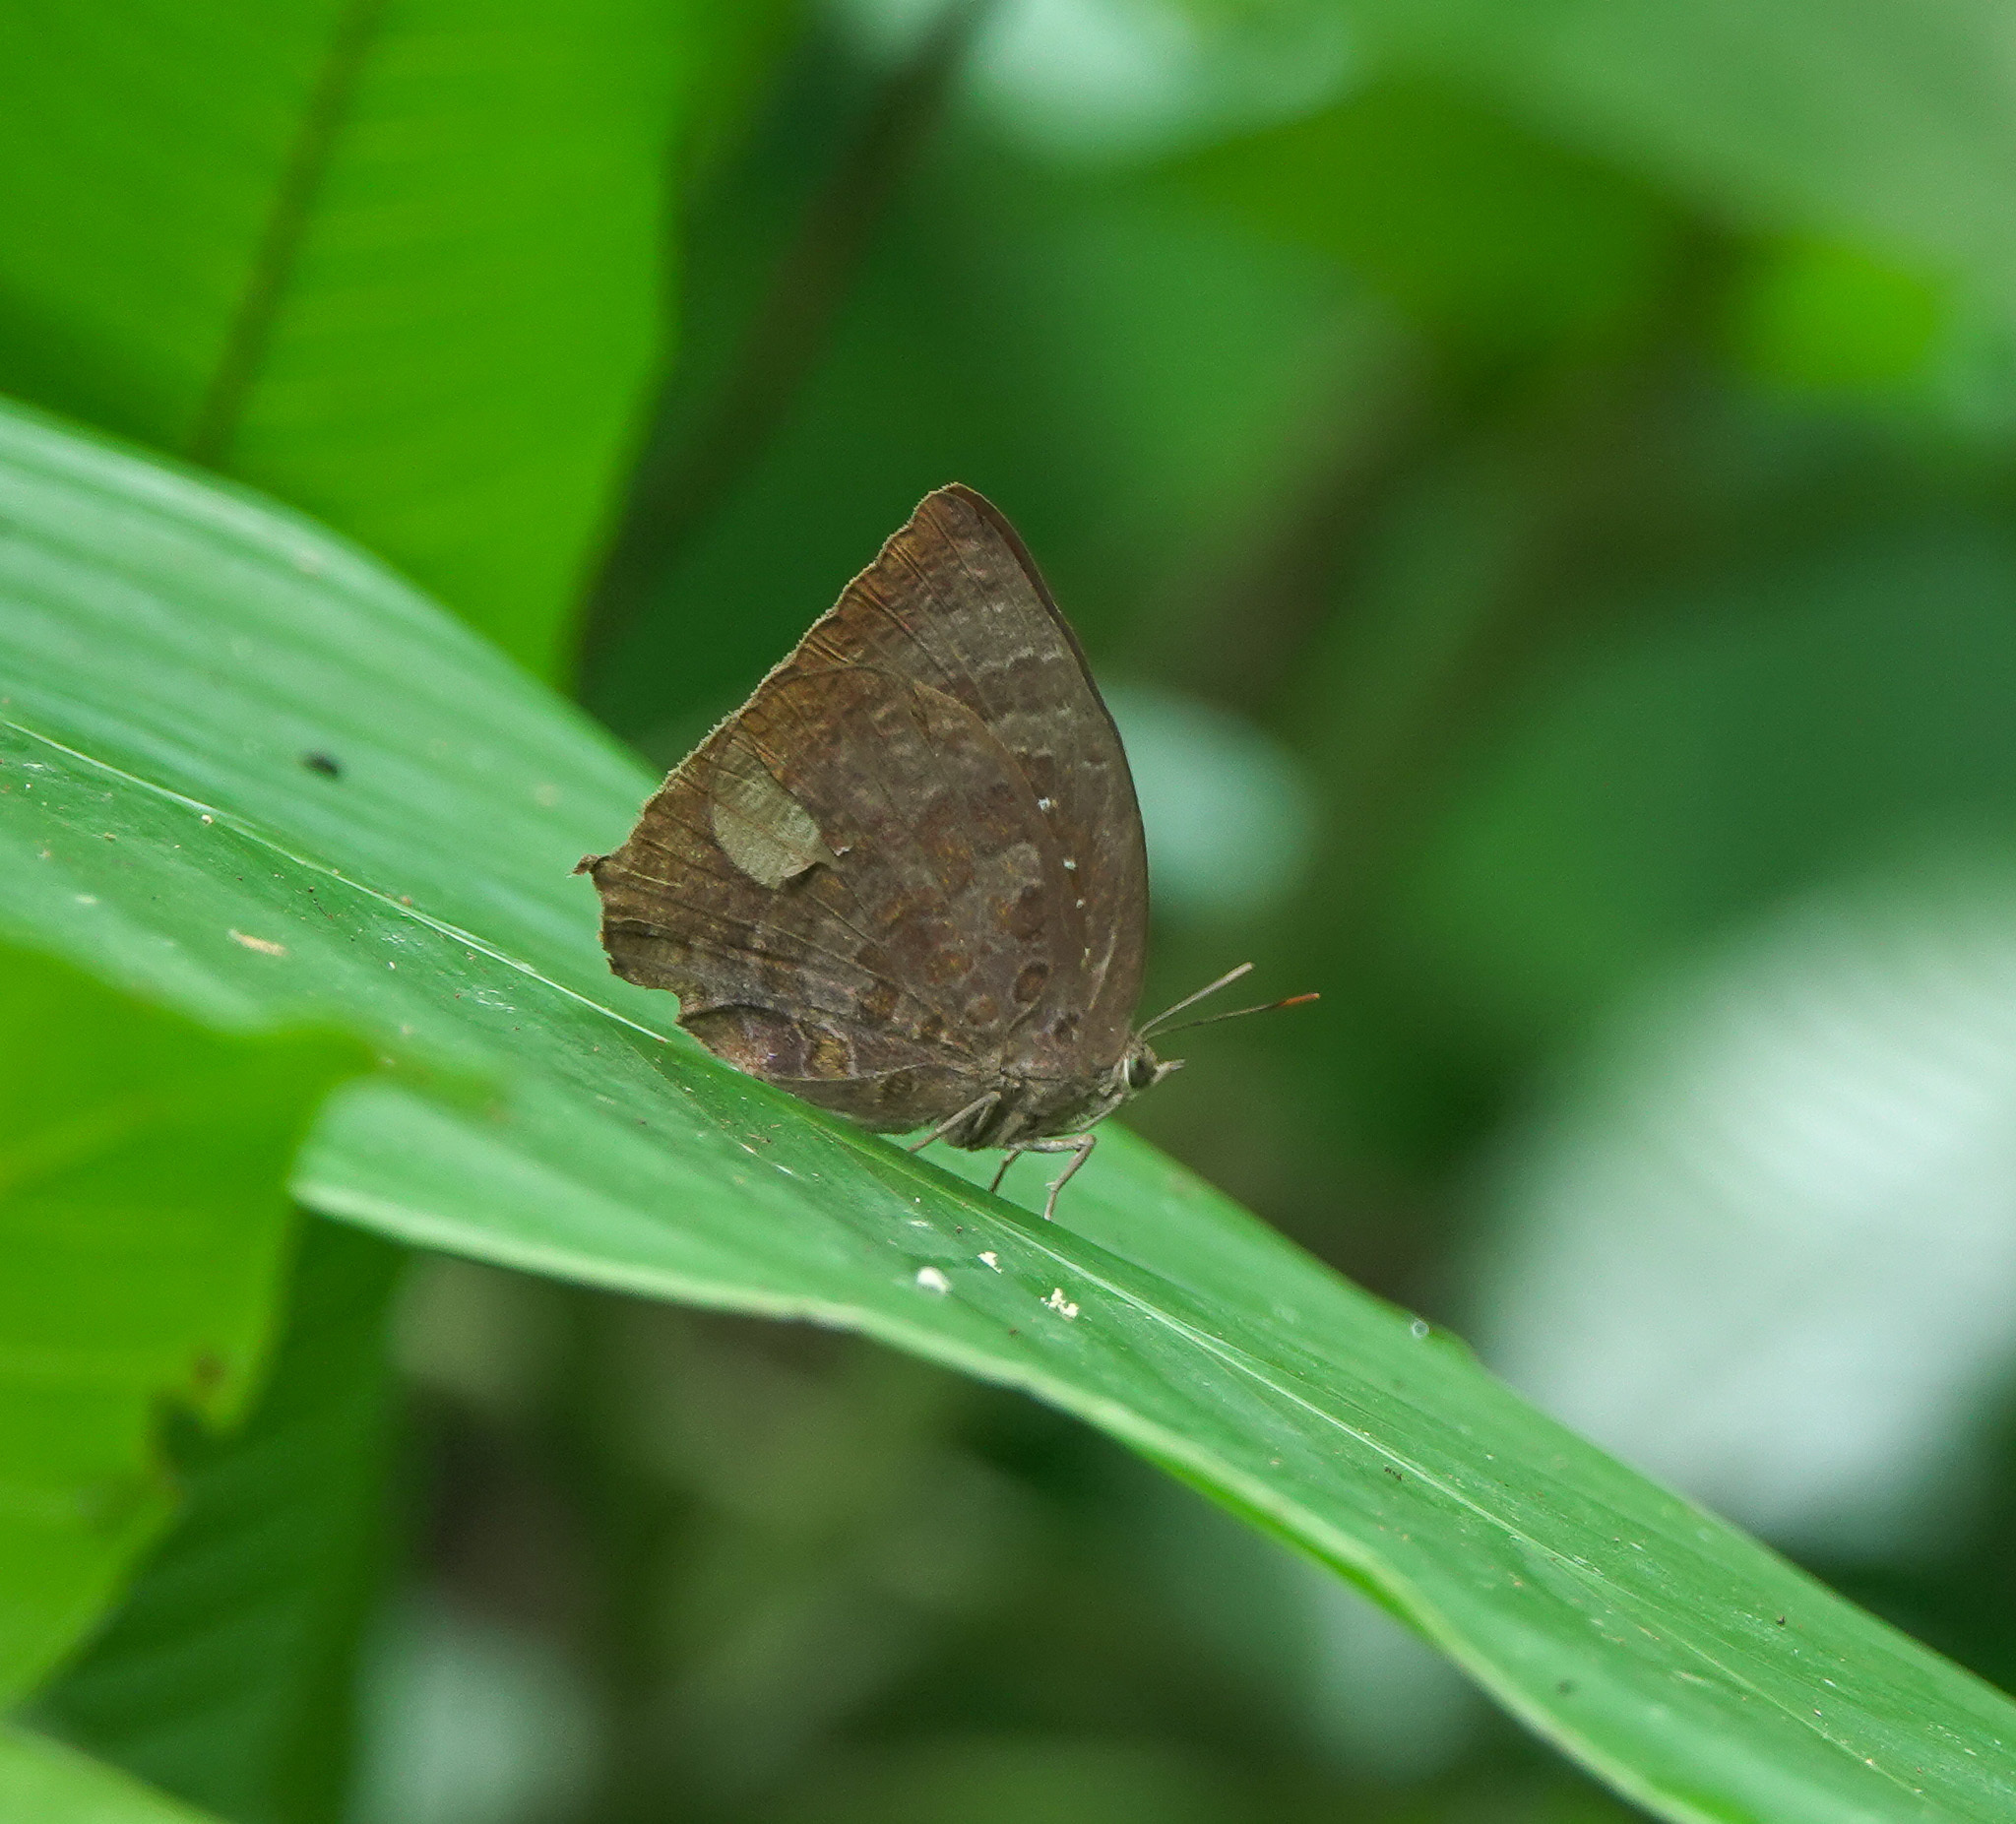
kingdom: Animalia
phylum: Arthropoda
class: Insecta
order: Lepidoptera
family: Lycaenidae
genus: Arhopala
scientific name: Arhopala centaurus
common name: Dull oak-blue
